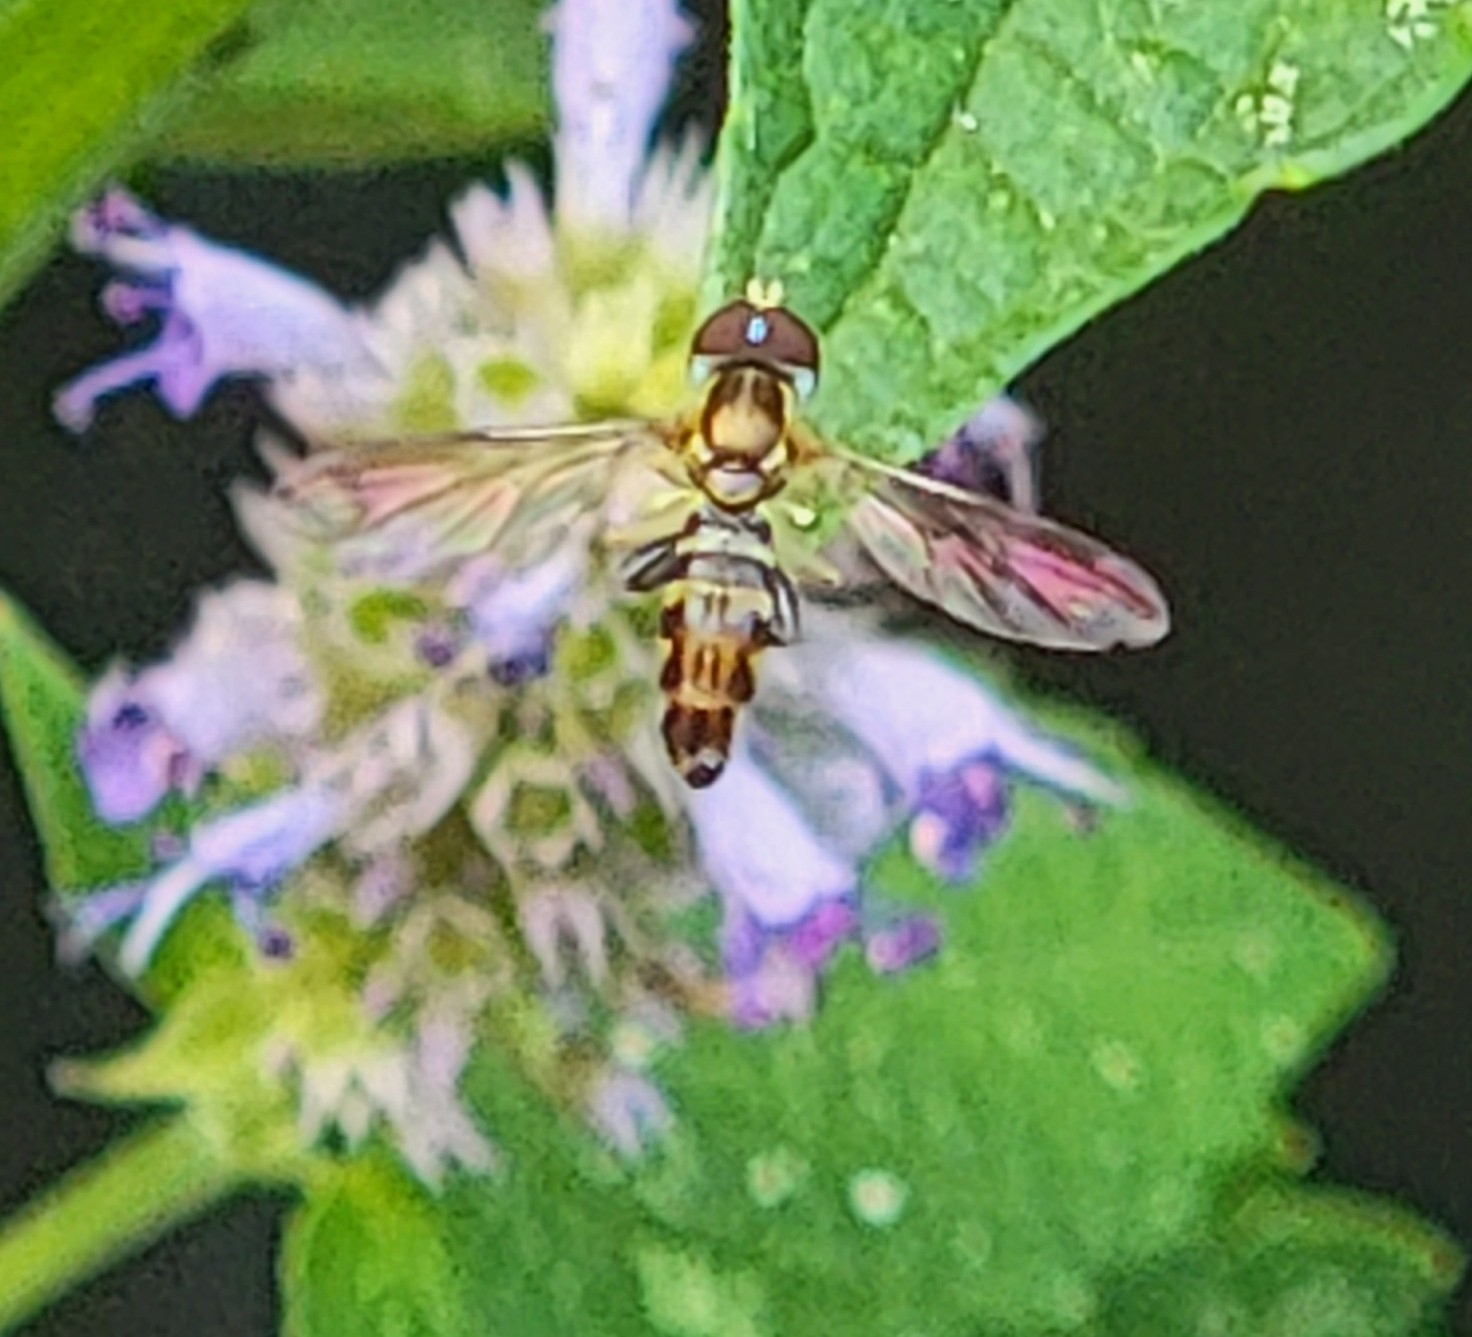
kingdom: Animalia
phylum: Arthropoda
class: Insecta
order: Diptera
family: Syrphidae
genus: Toxomerus
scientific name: Toxomerus geminatus
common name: Eastern calligrapher
